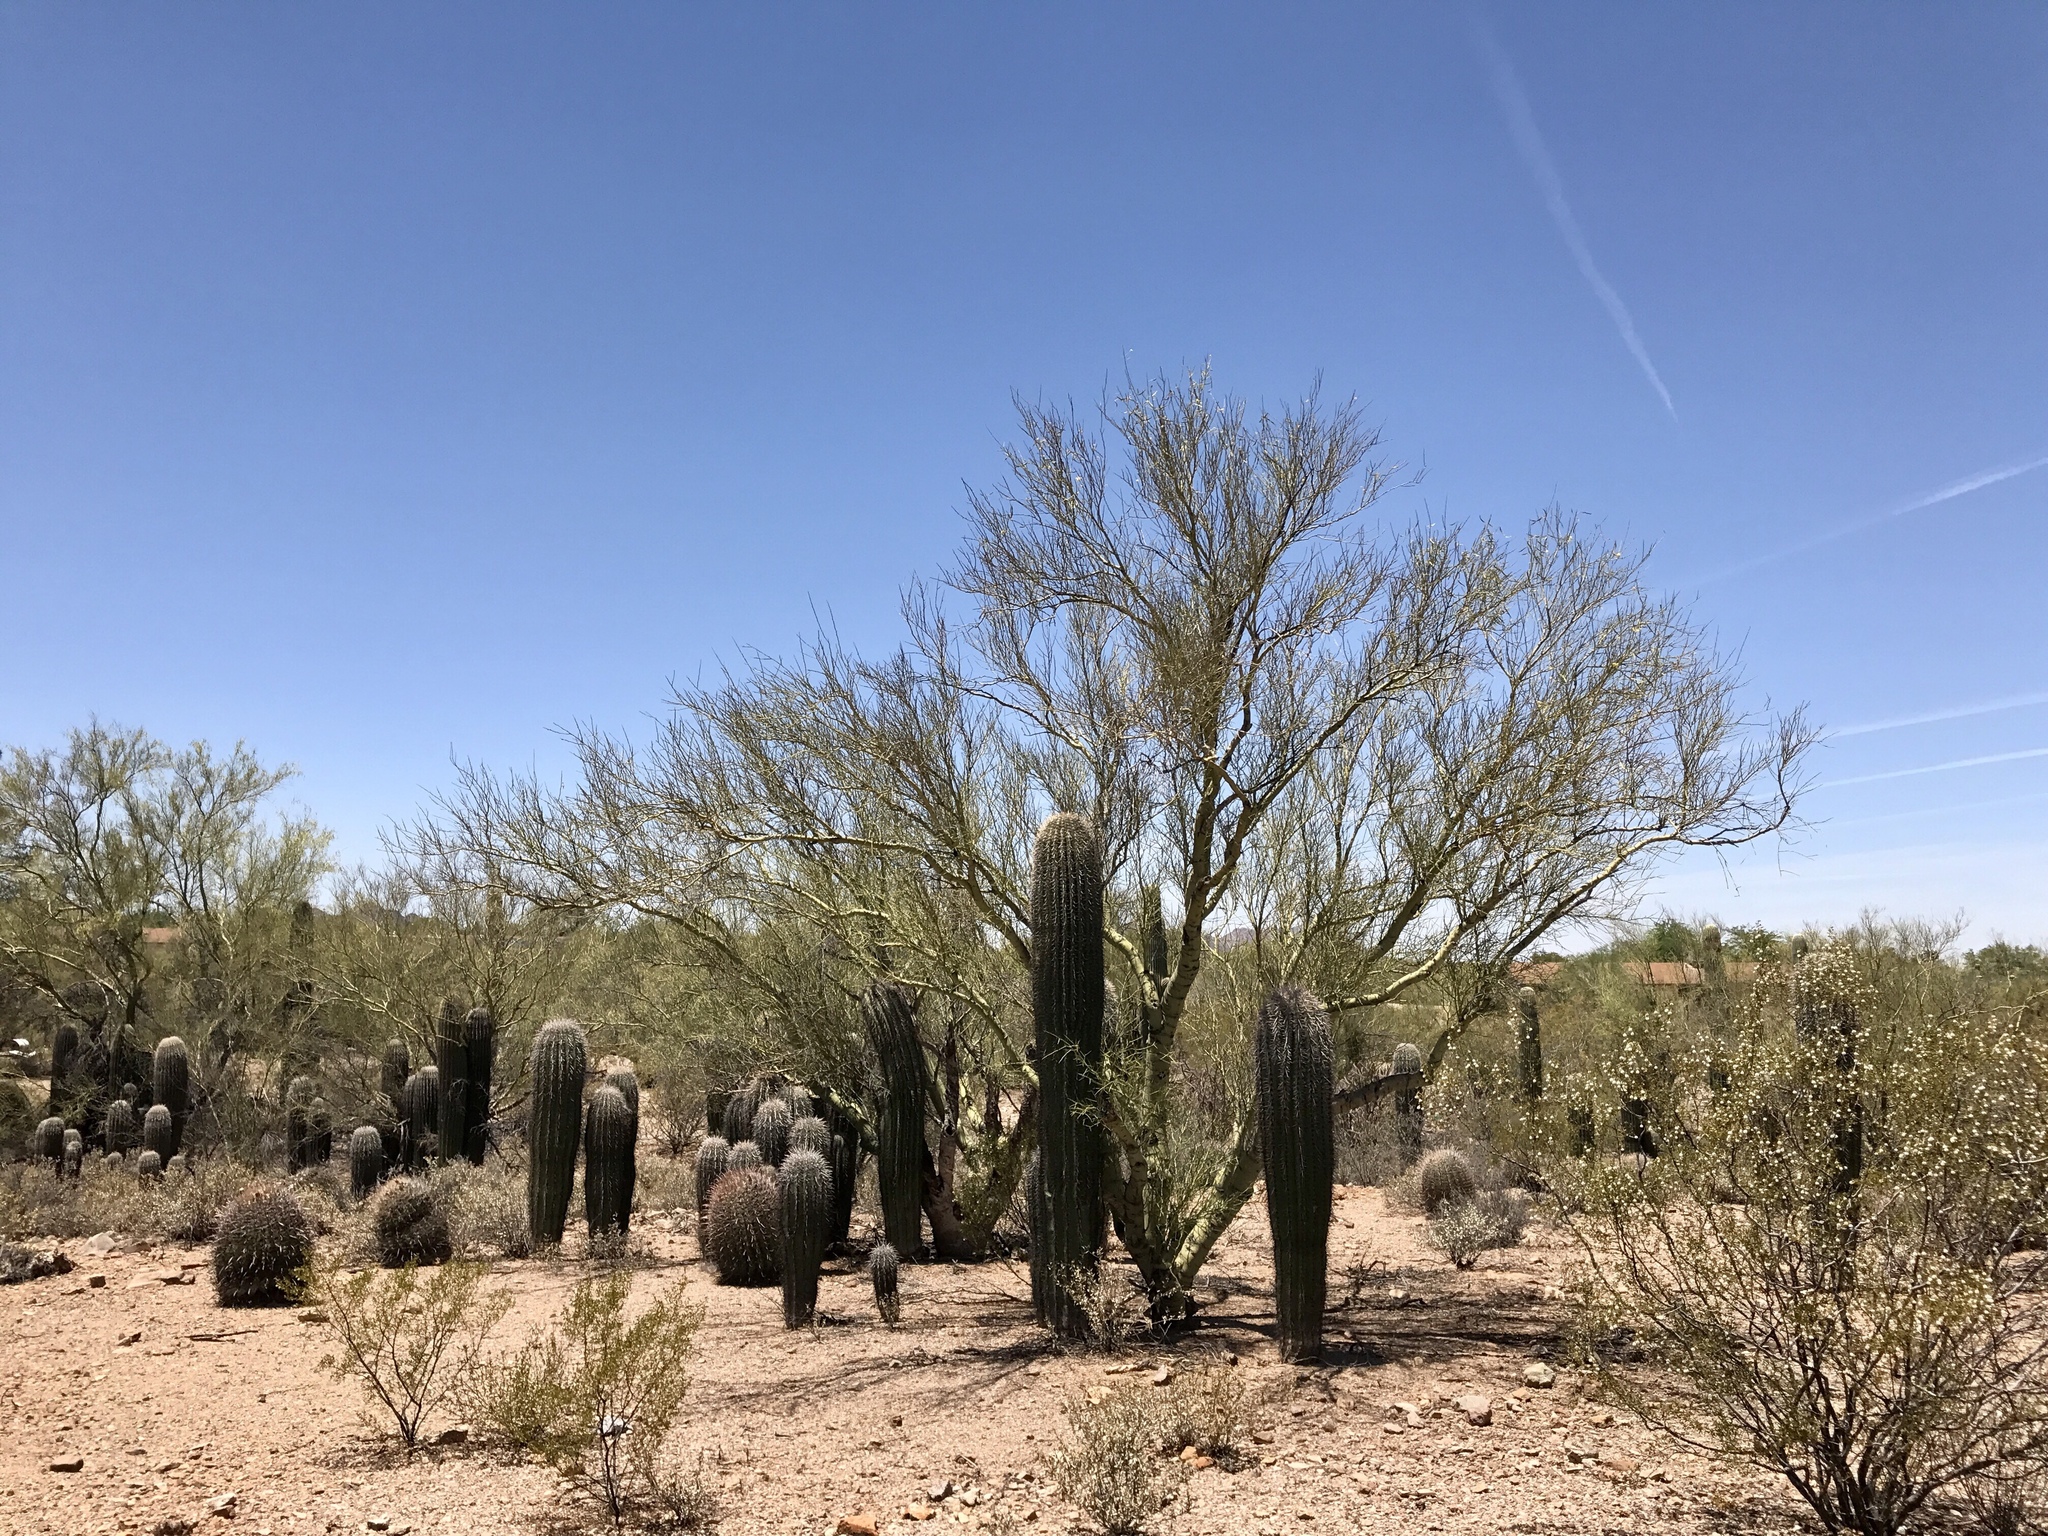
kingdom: Plantae
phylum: Tracheophyta
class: Magnoliopsida
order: Caryophyllales
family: Cactaceae
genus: Carnegiea
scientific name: Carnegiea gigantea
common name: Saguaro
